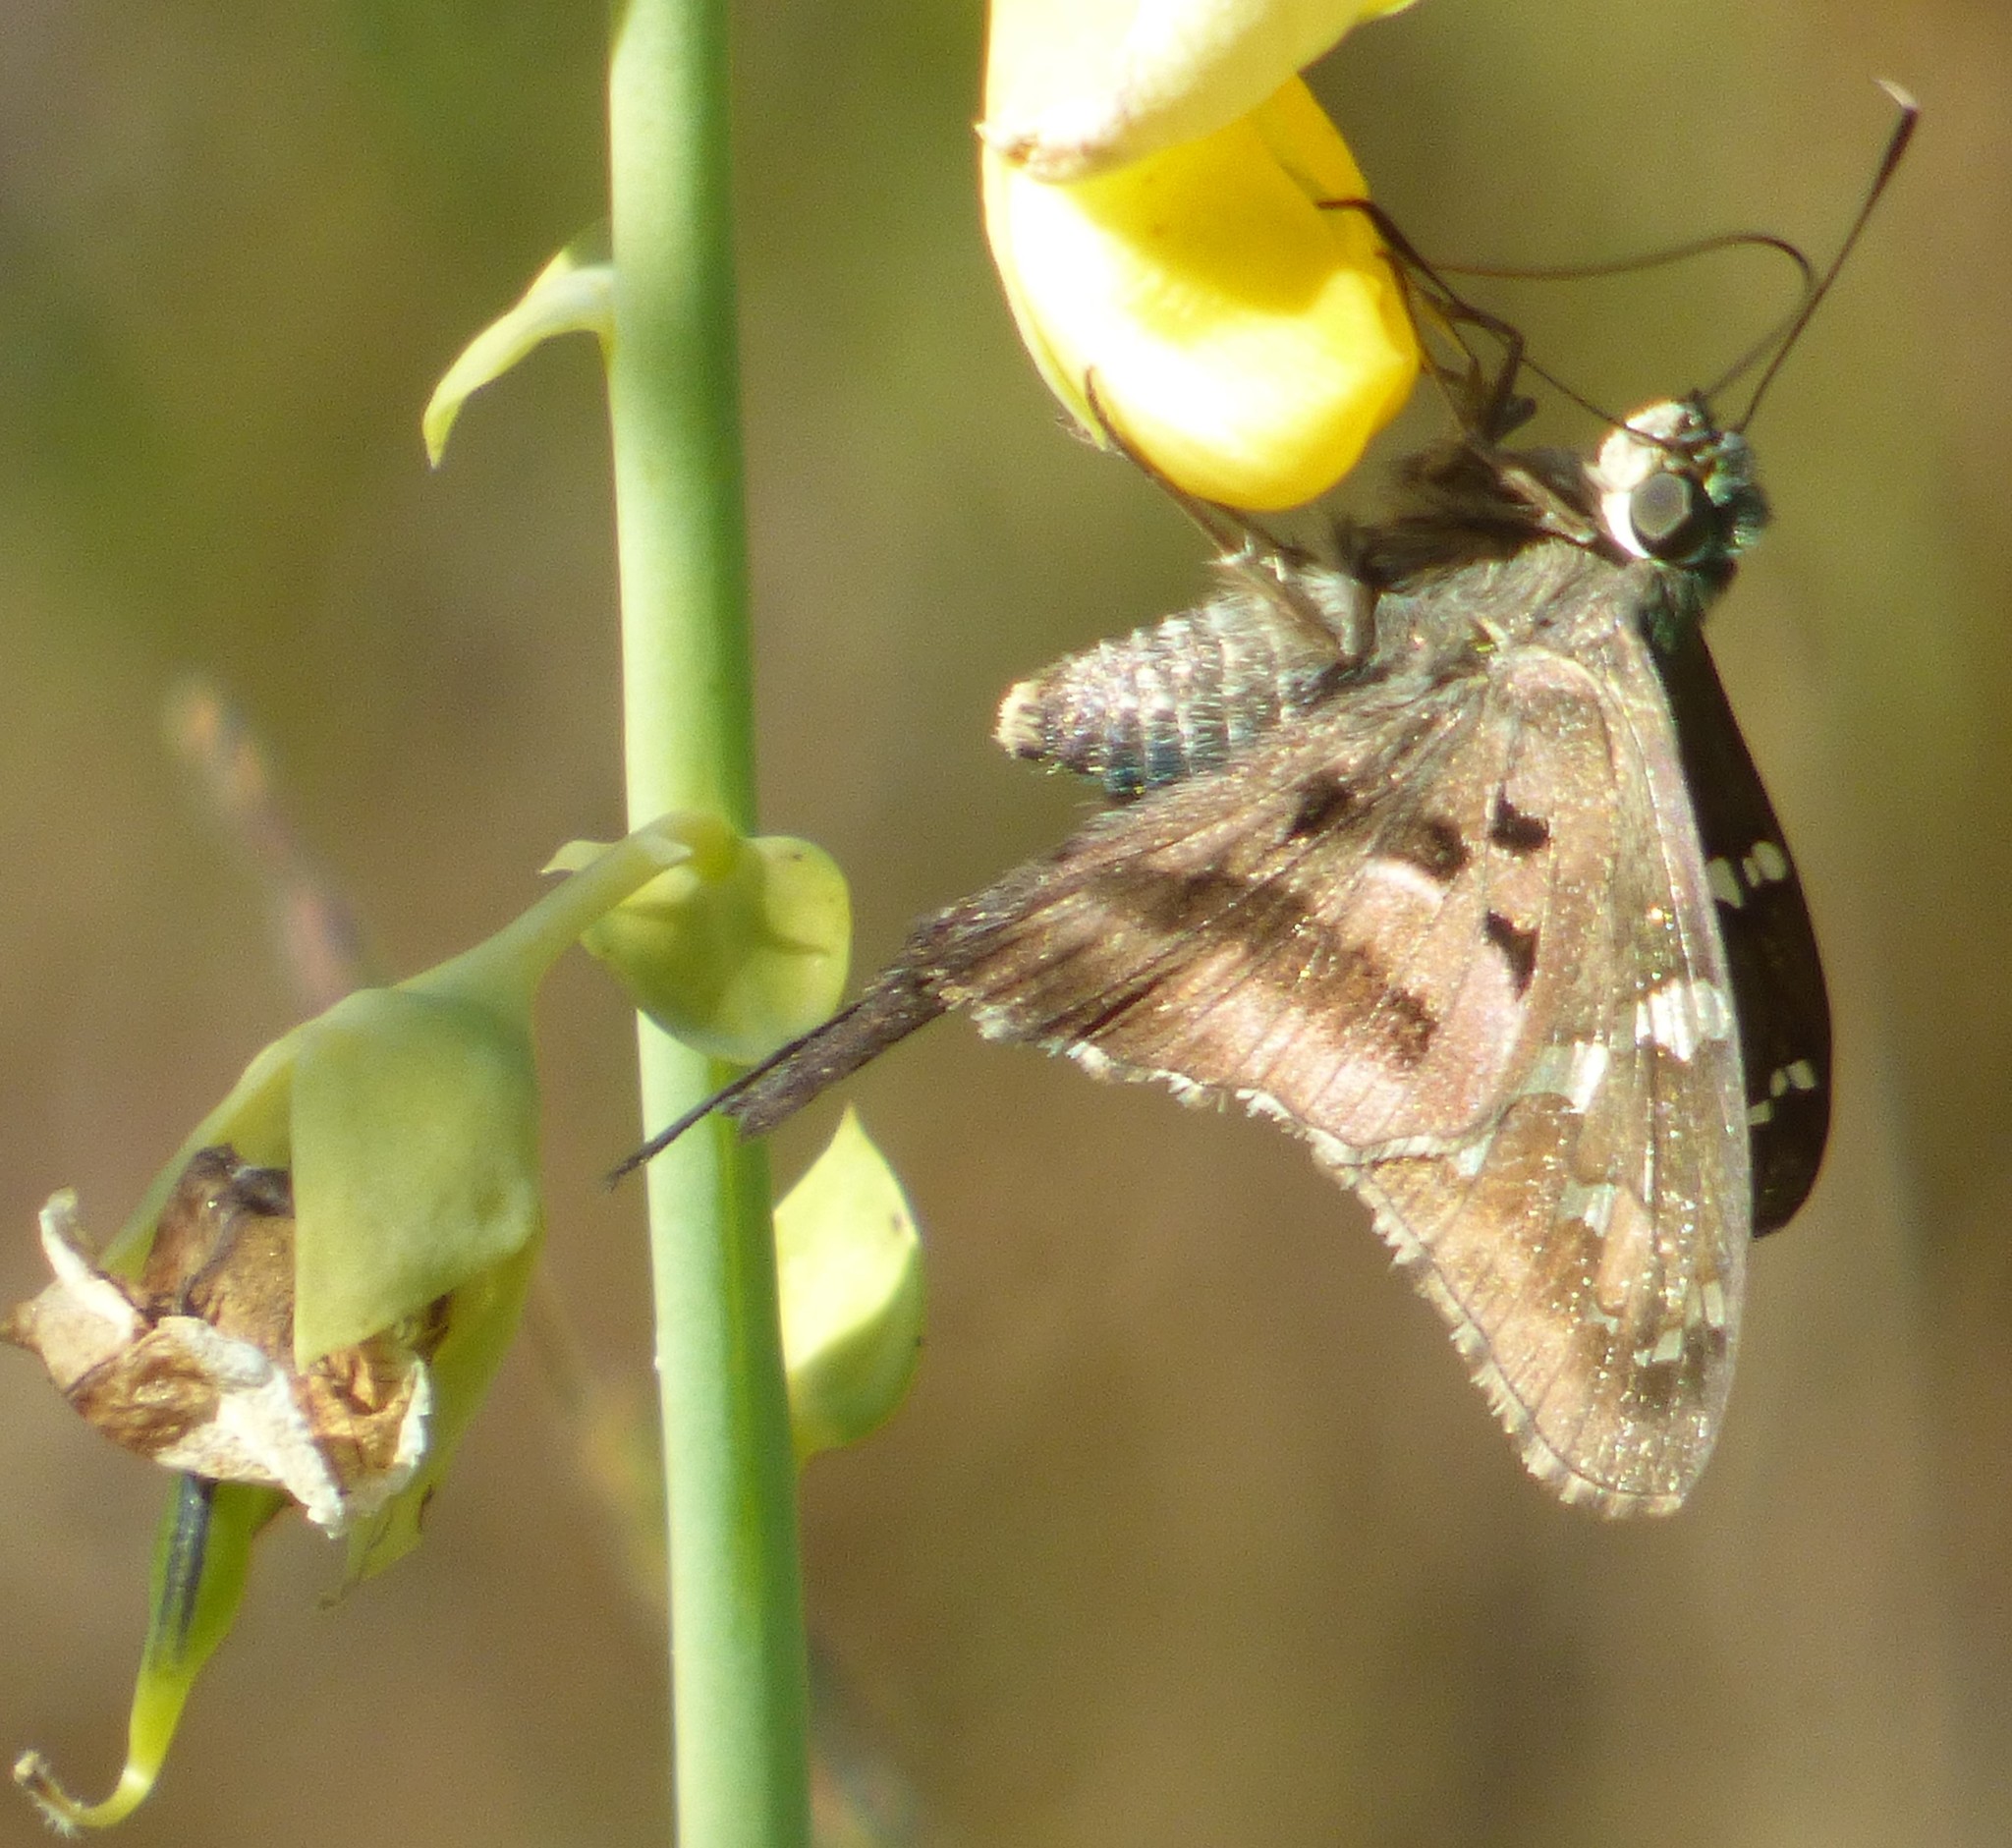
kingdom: Animalia
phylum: Arthropoda
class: Insecta
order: Lepidoptera
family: Hesperiidae
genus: Urbanus
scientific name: Urbanus proteus
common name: Long-tailed skipper
